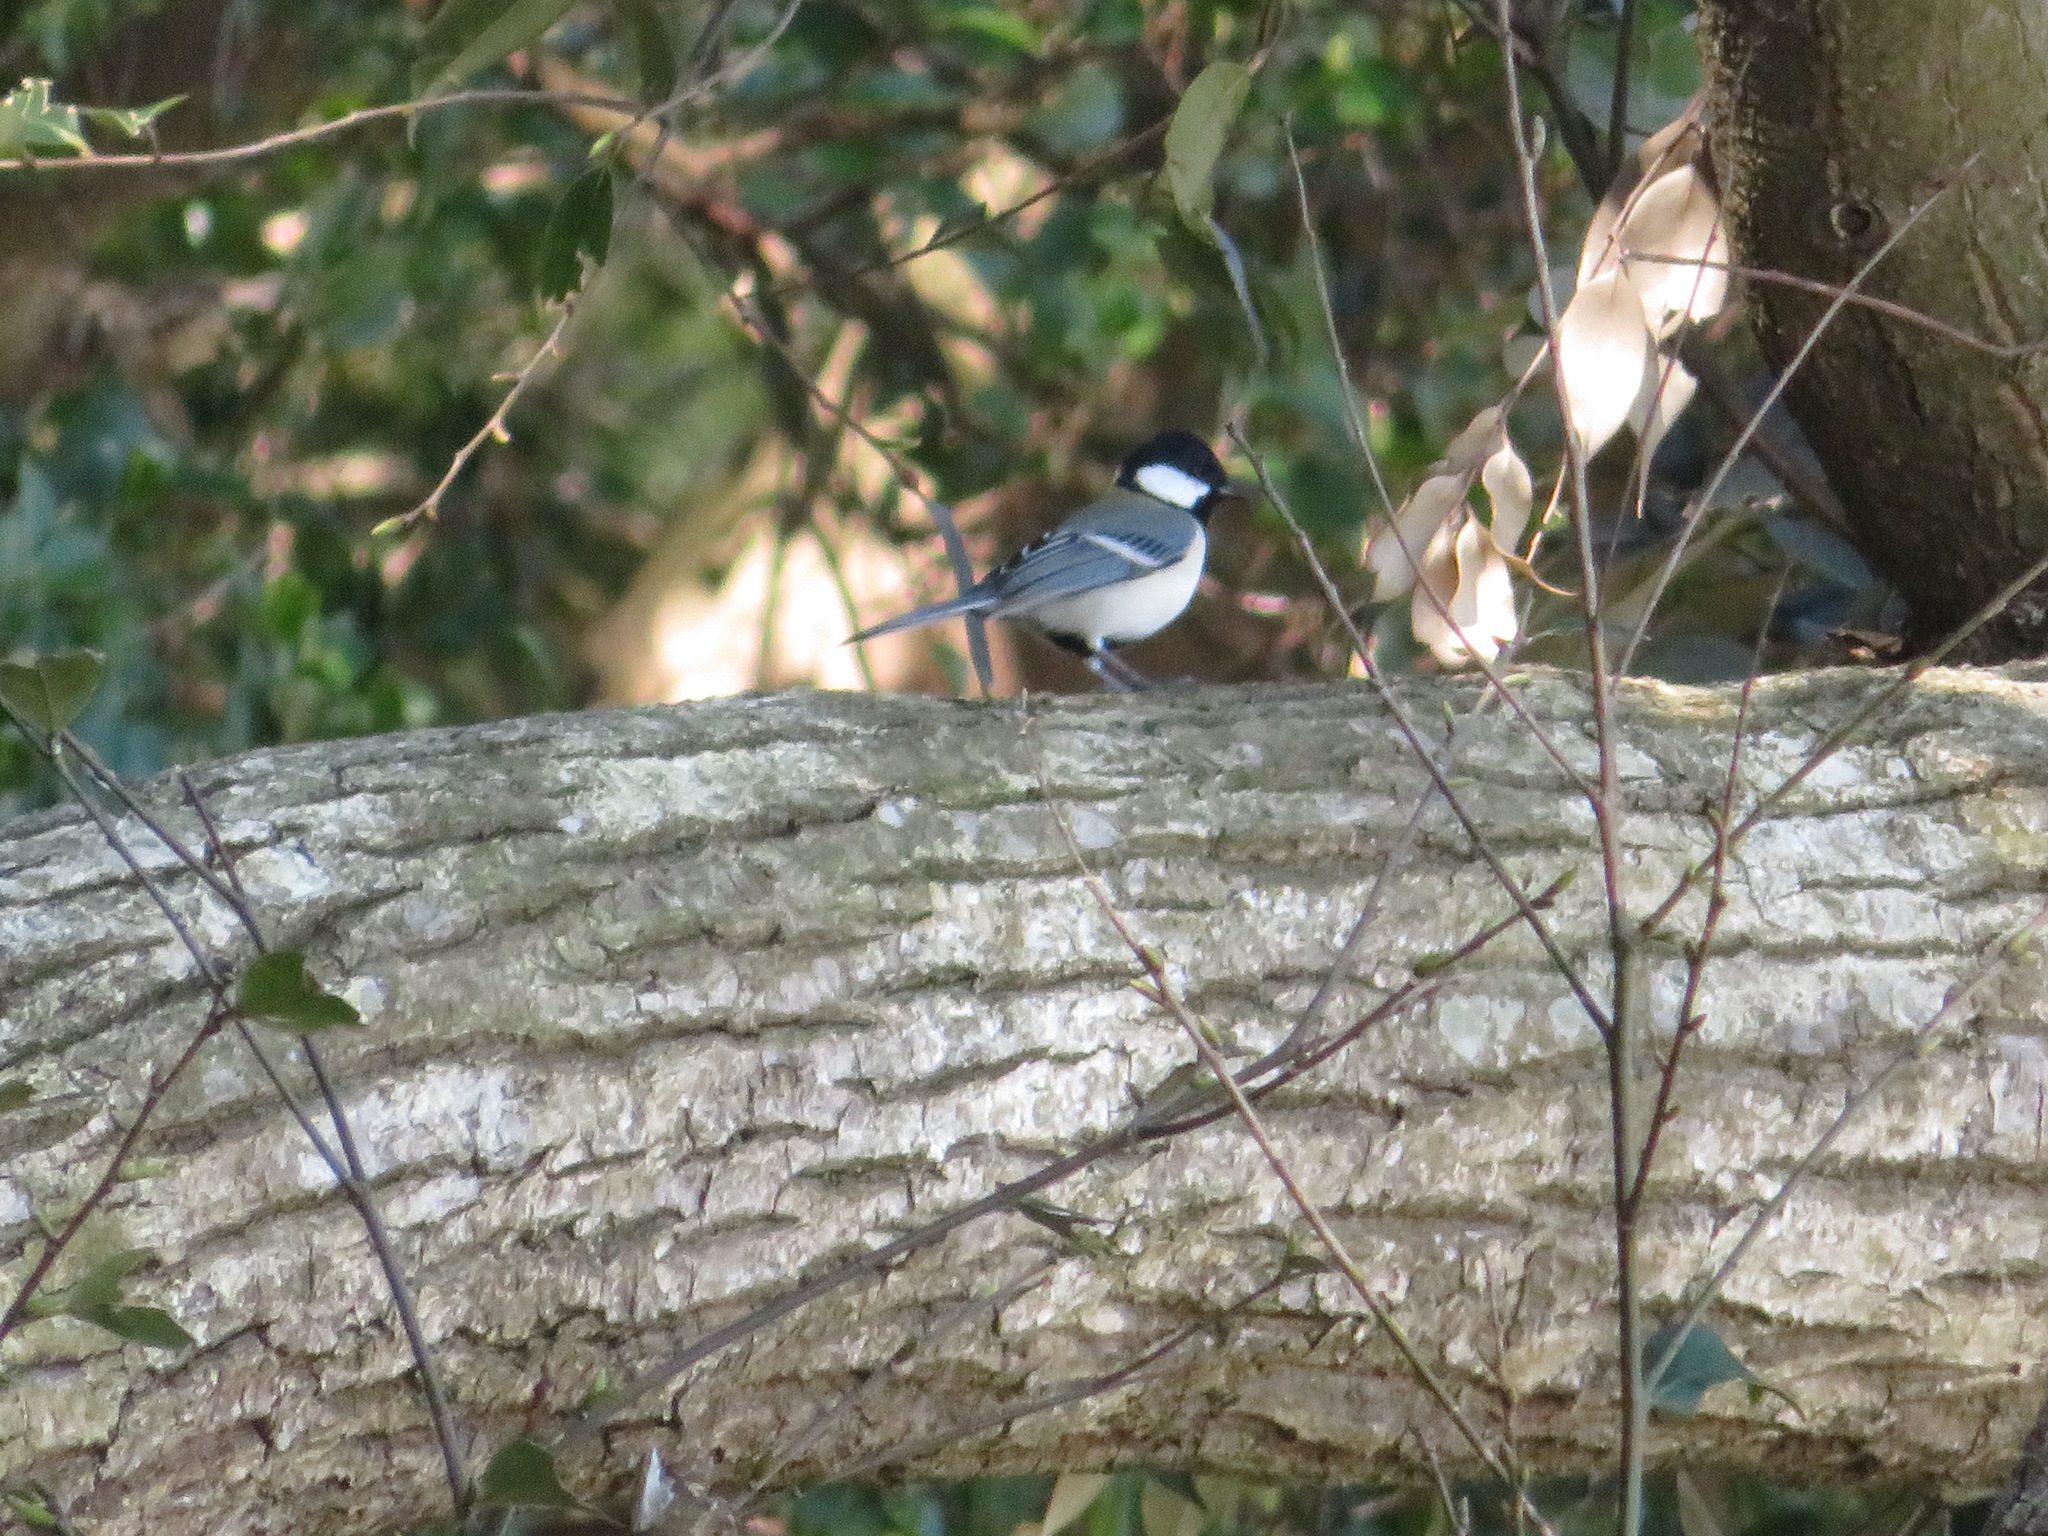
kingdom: Animalia
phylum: Chordata
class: Aves
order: Passeriformes
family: Paridae
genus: Parus
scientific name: Parus minor
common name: Japanese tit
